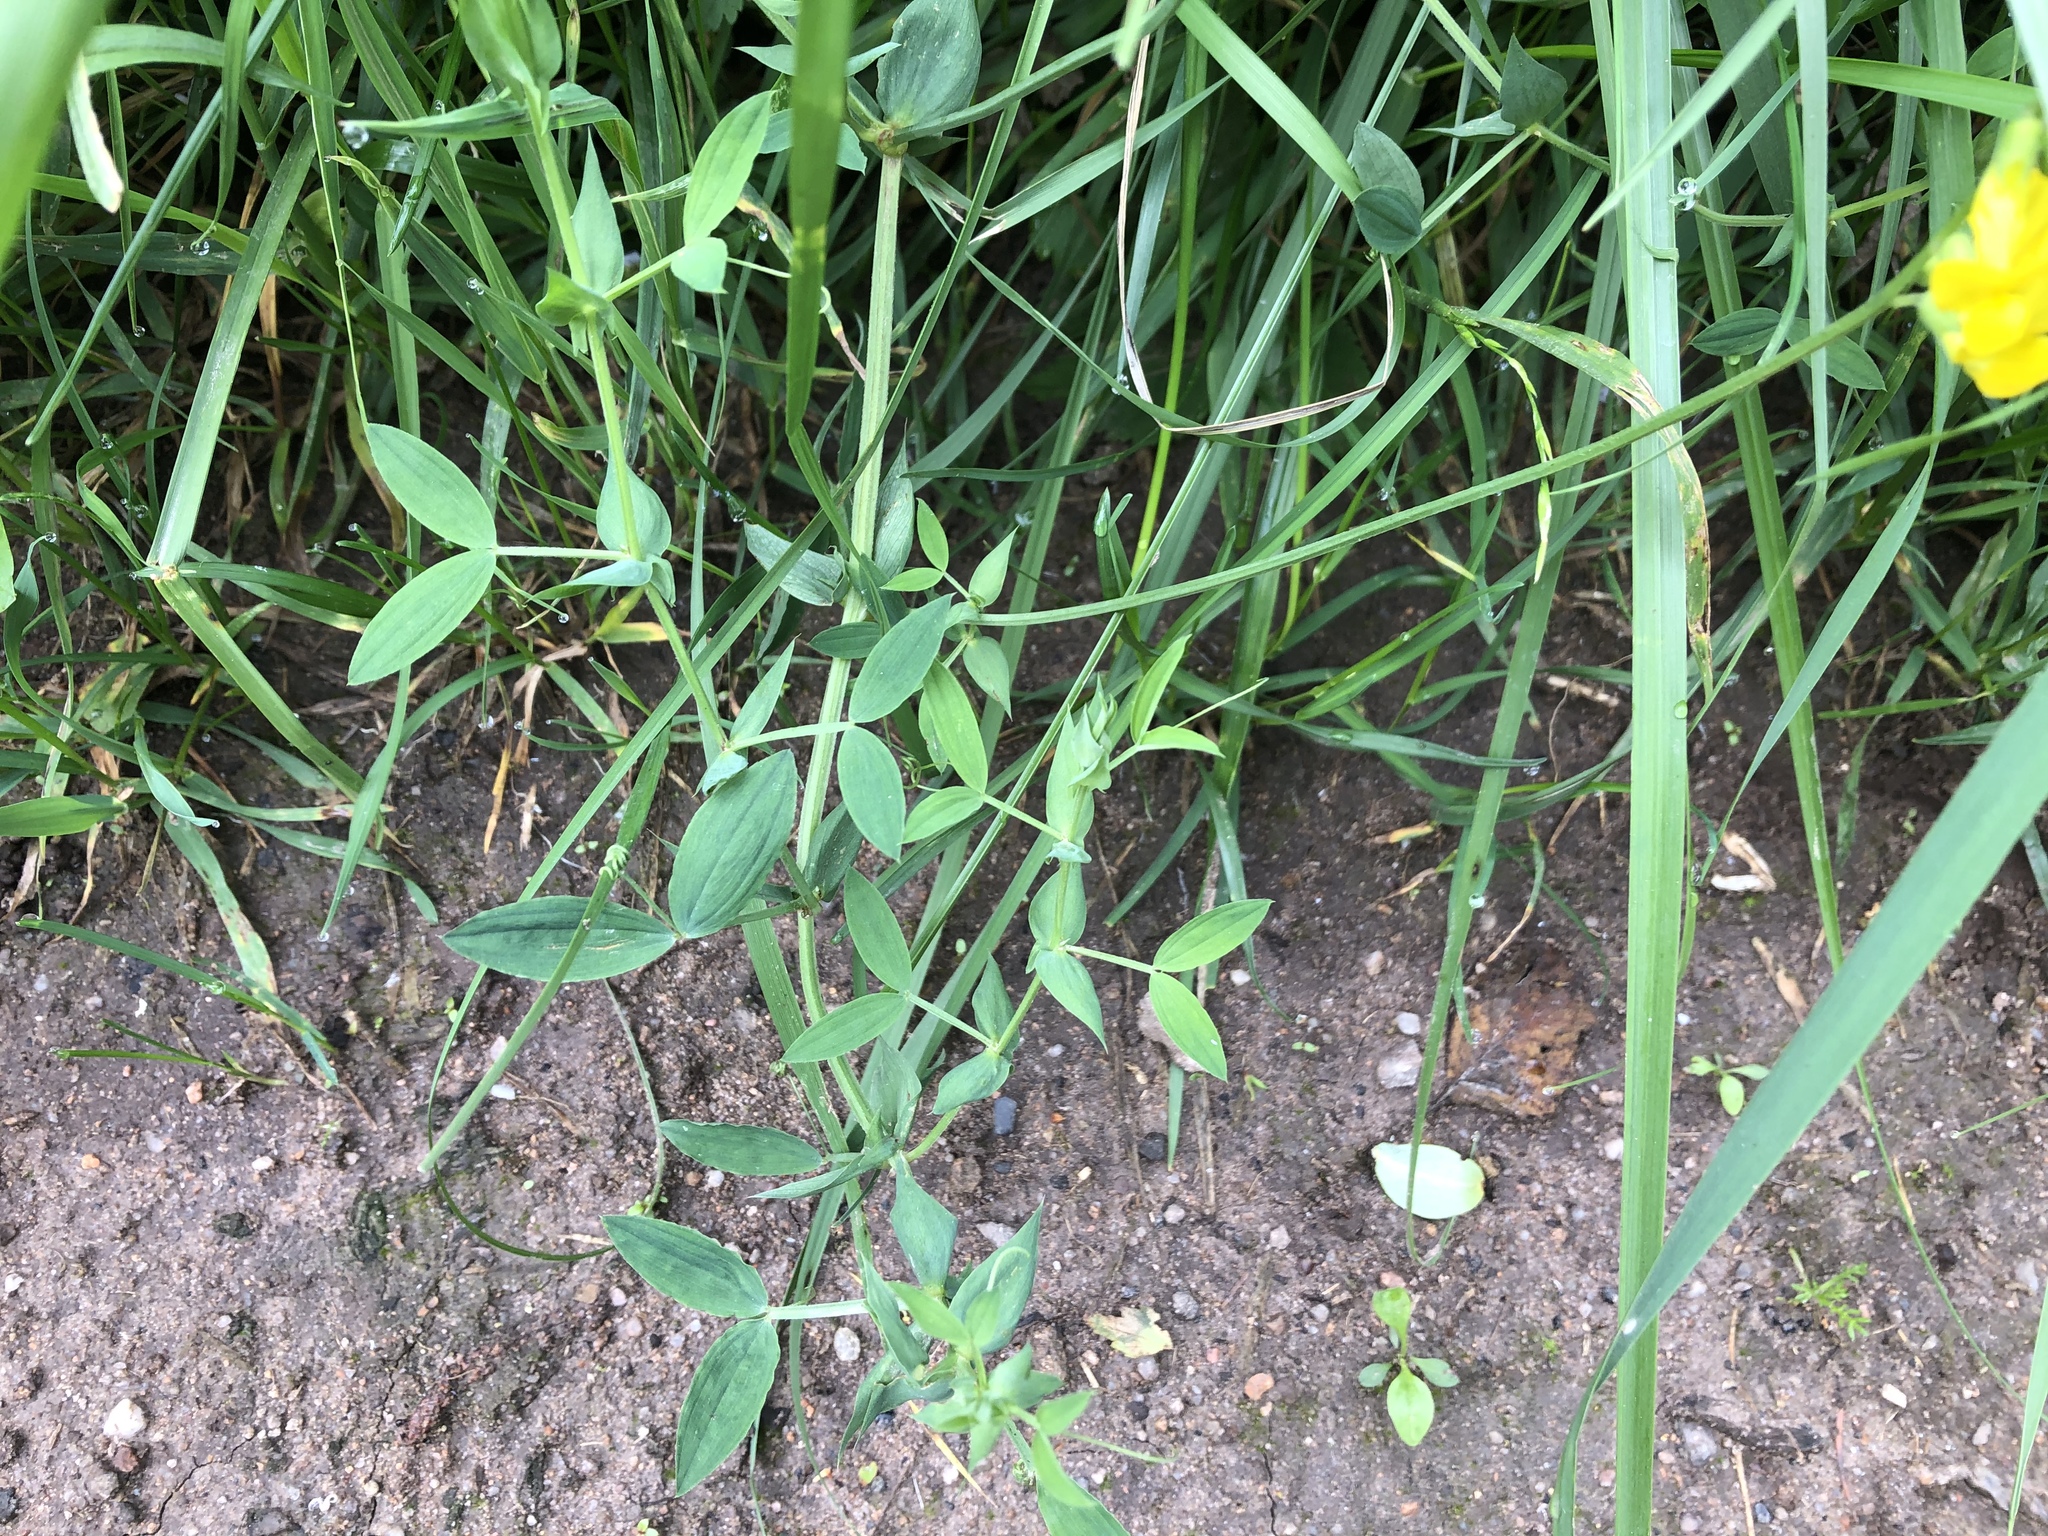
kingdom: Plantae
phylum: Tracheophyta
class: Magnoliopsida
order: Fabales
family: Fabaceae
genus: Lathyrus
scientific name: Lathyrus pratensis
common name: Meadow vetchling
